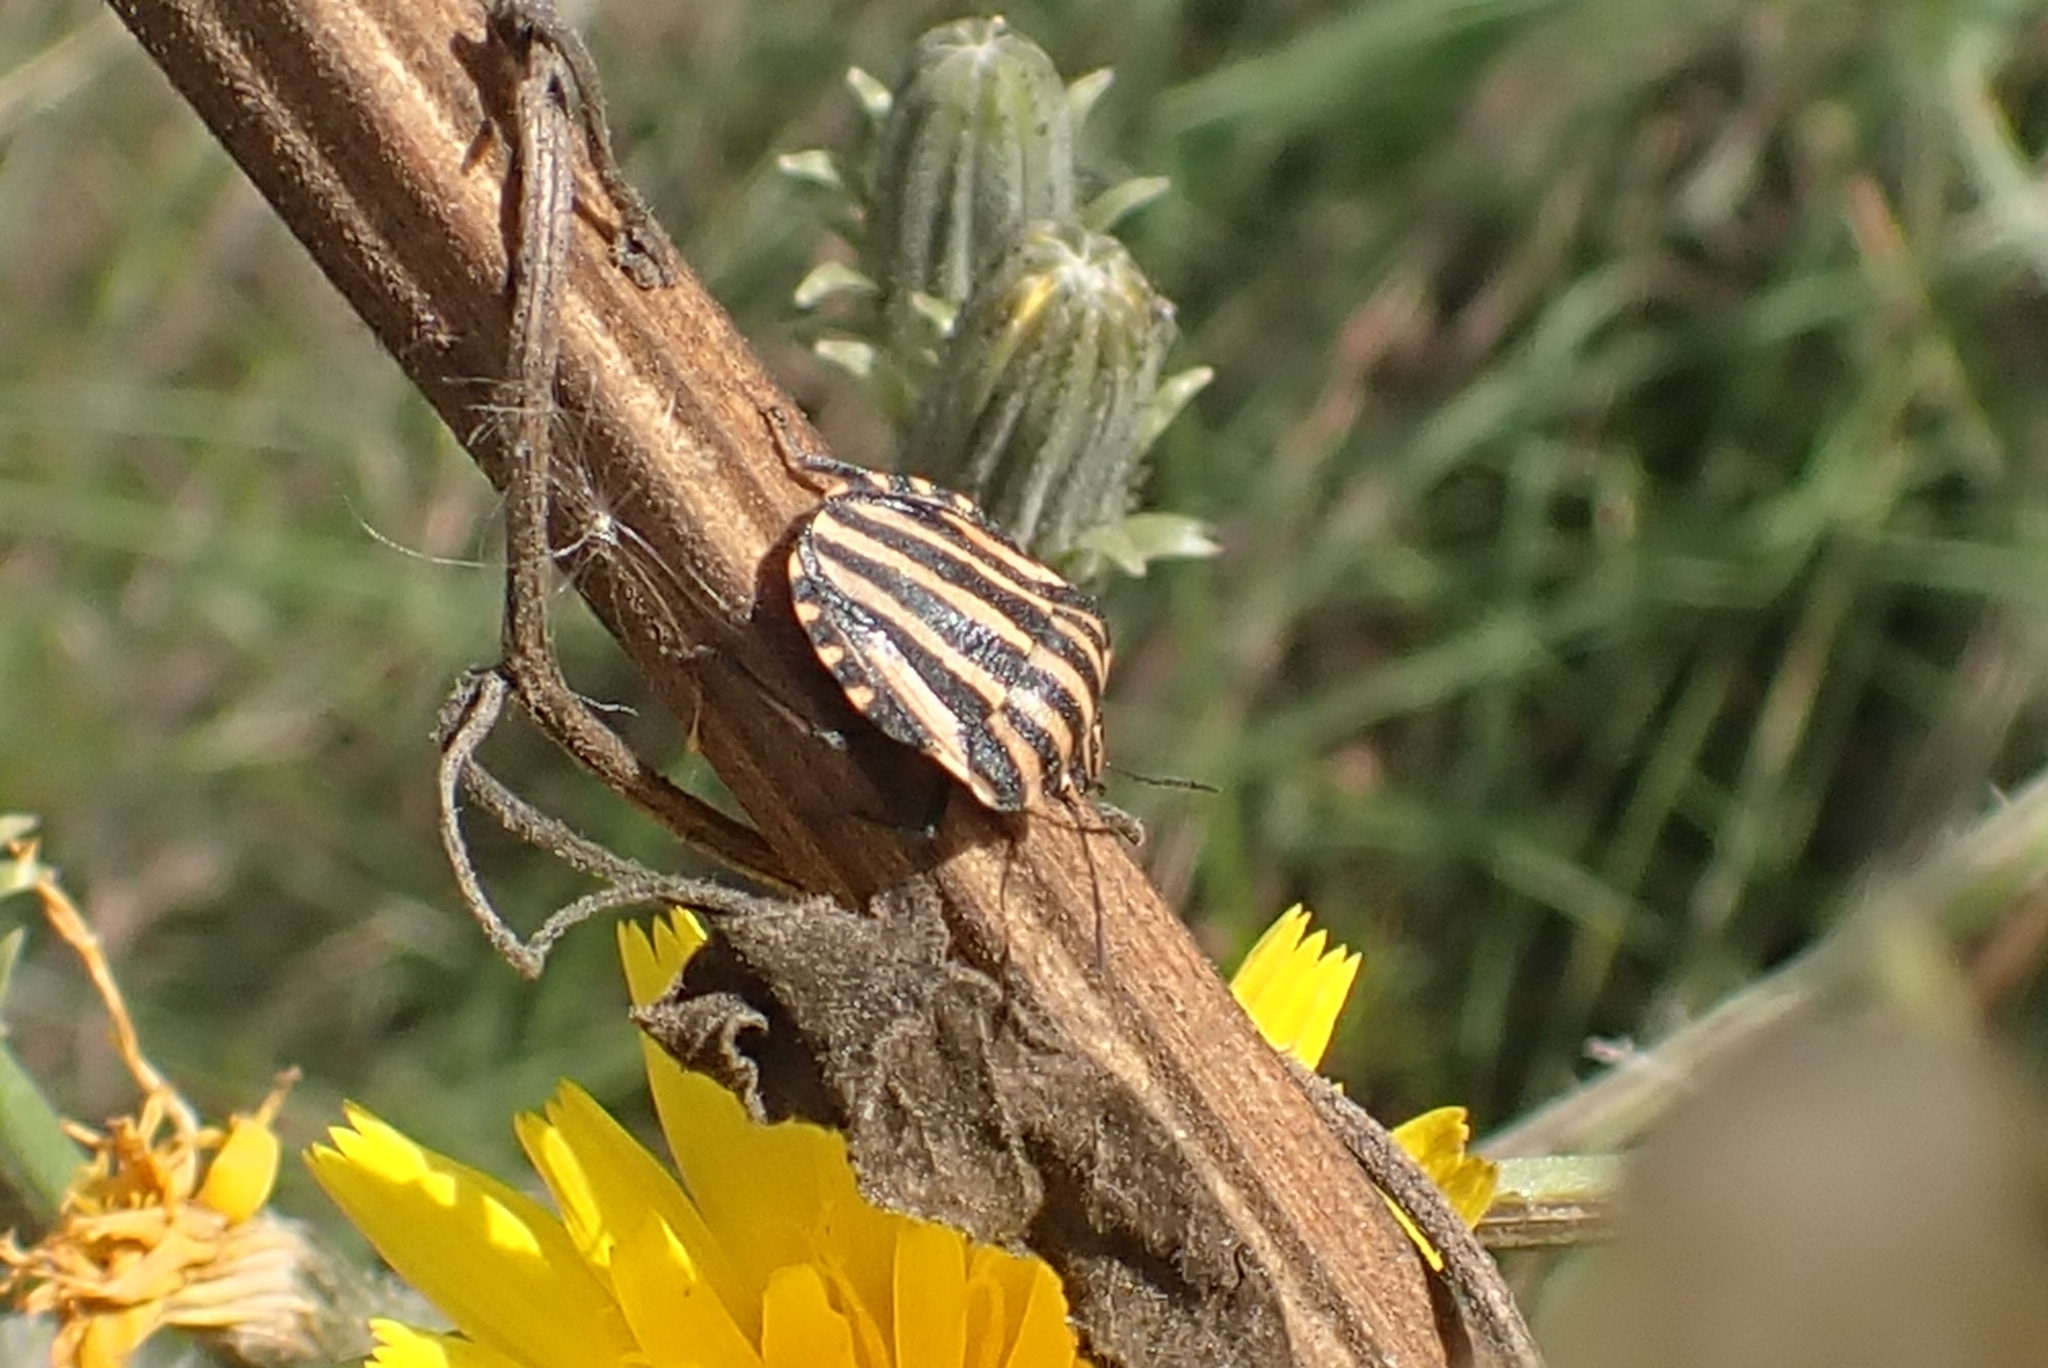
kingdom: Animalia
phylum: Arthropoda
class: Insecta
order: Hemiptera
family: Pentatomidae
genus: Graphosoma
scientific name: Graphosoma italicum
